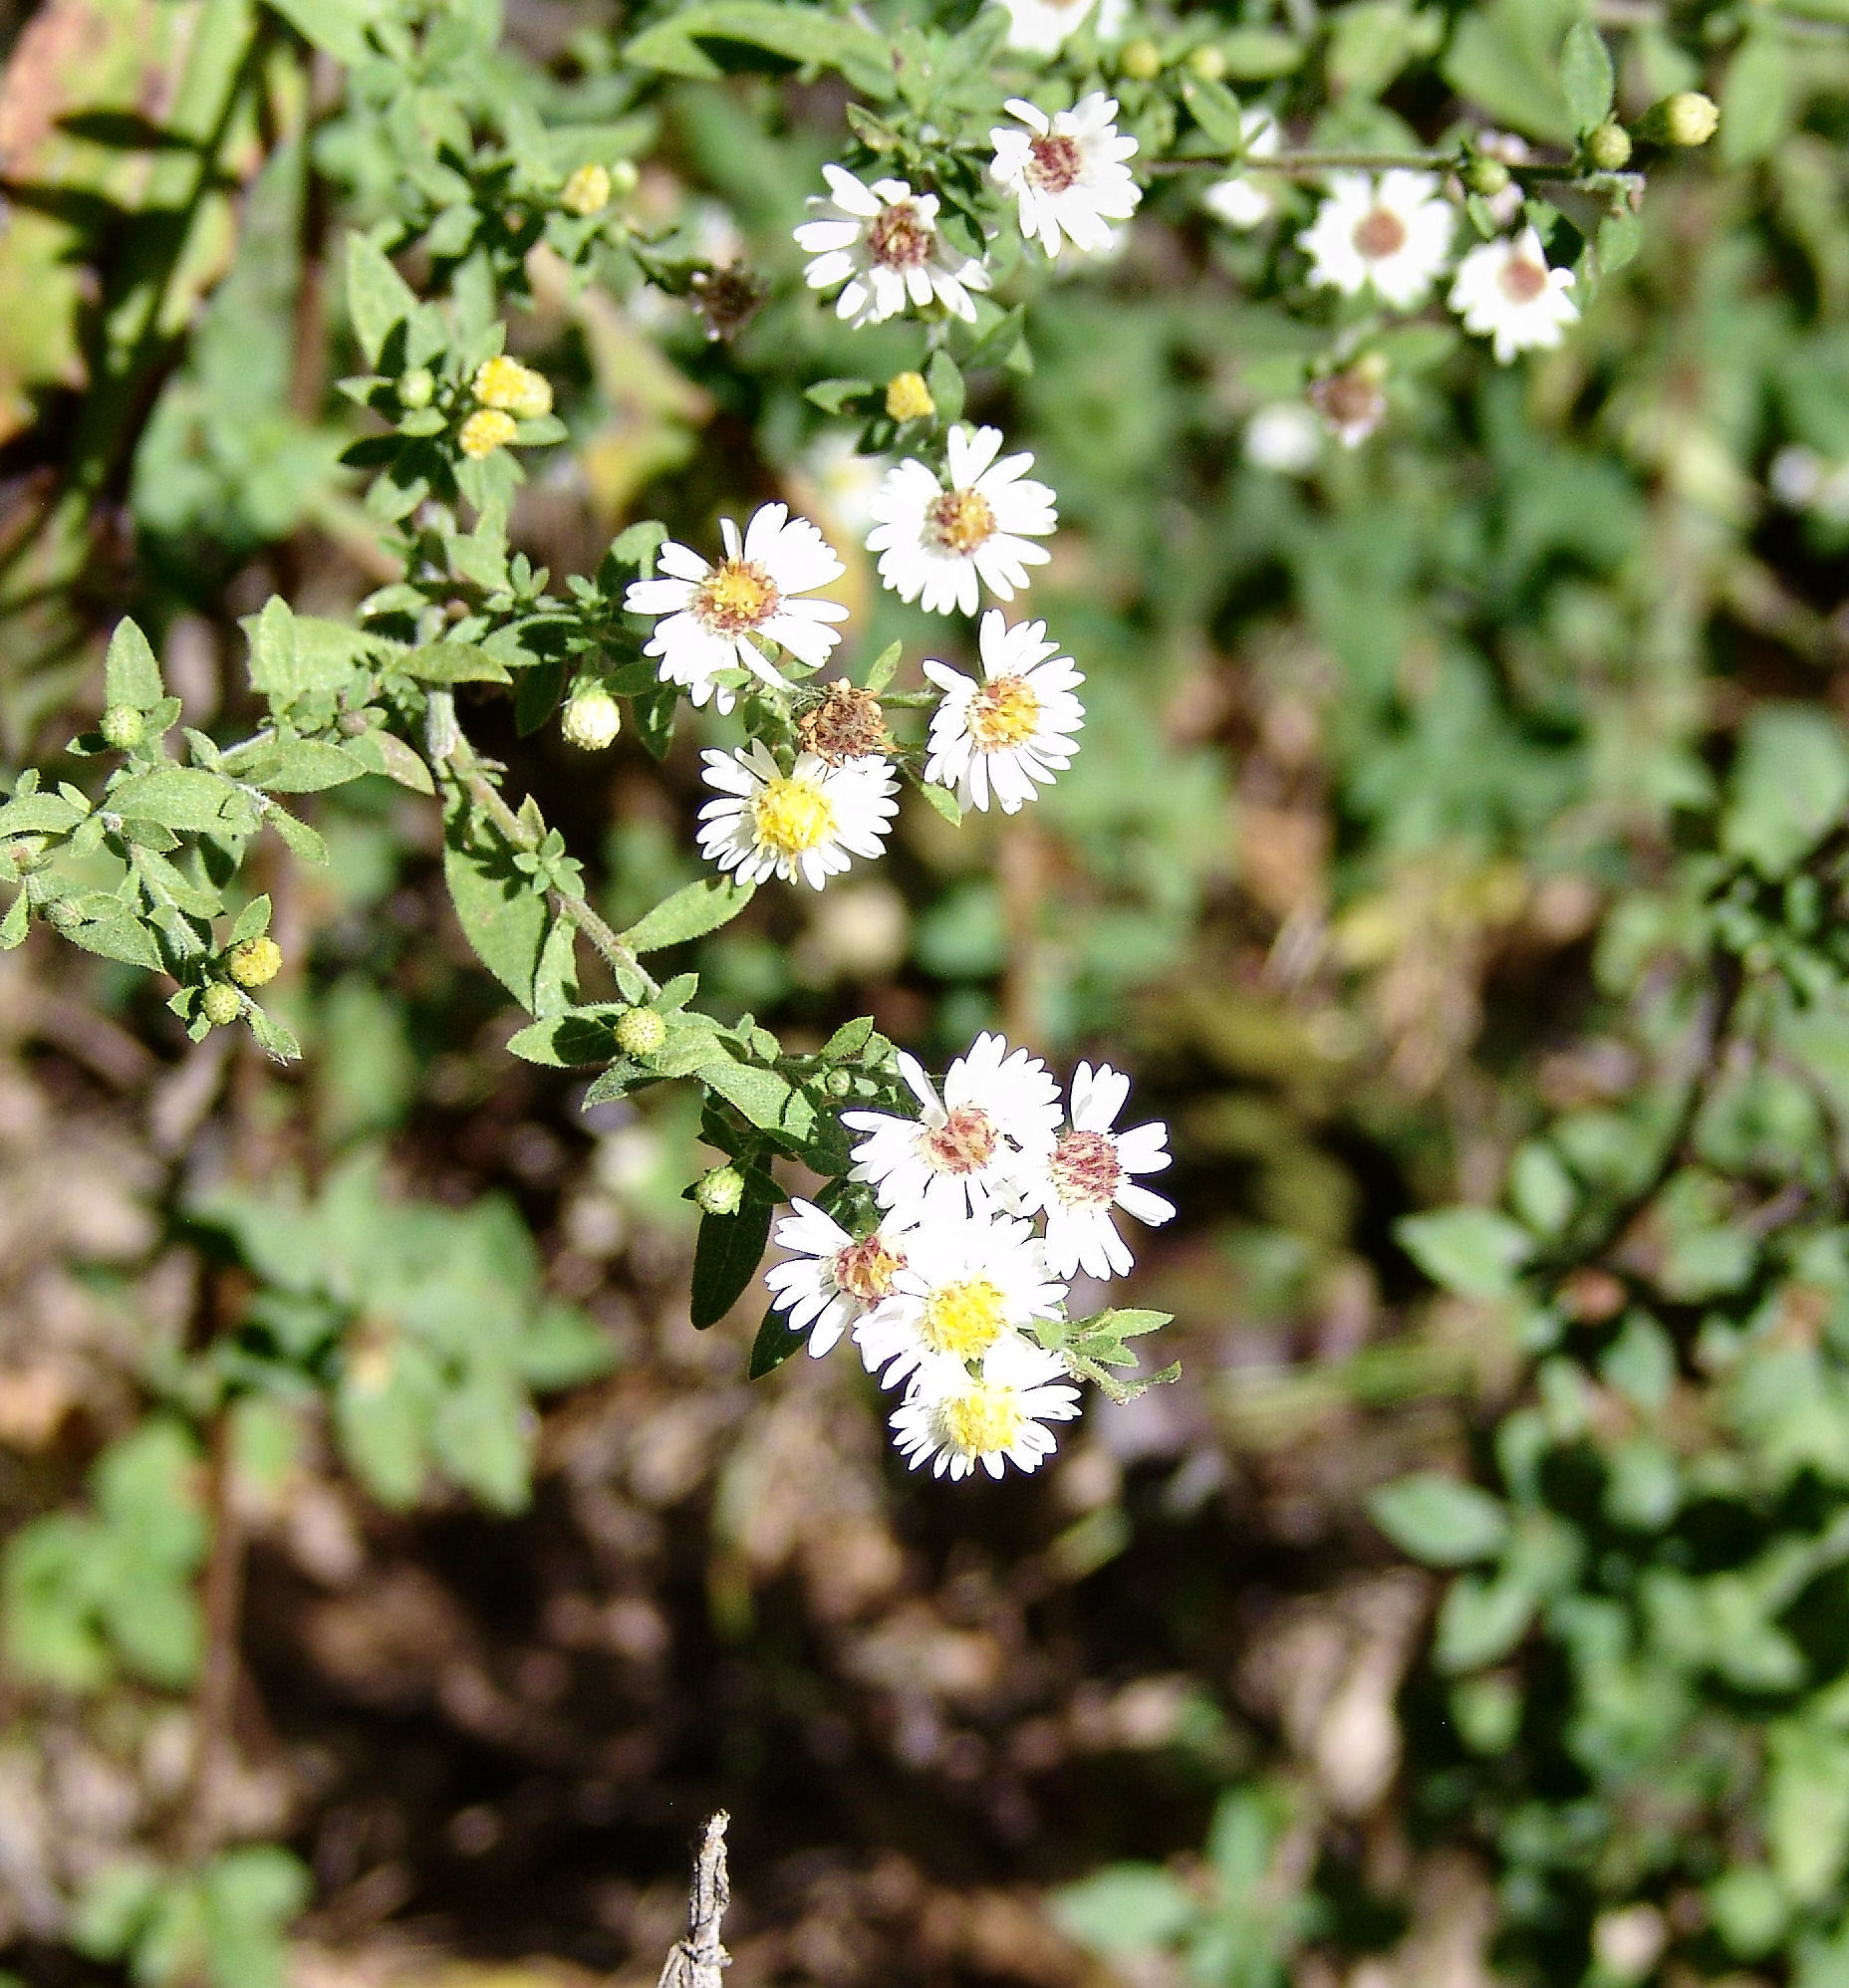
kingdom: Plantae
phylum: Tracheophyta
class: Magnoliopsida
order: Asterales
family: Asteraceae
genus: Symphyotrichum
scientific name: Symphyotrichum ontarionis
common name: Bottomland aster
